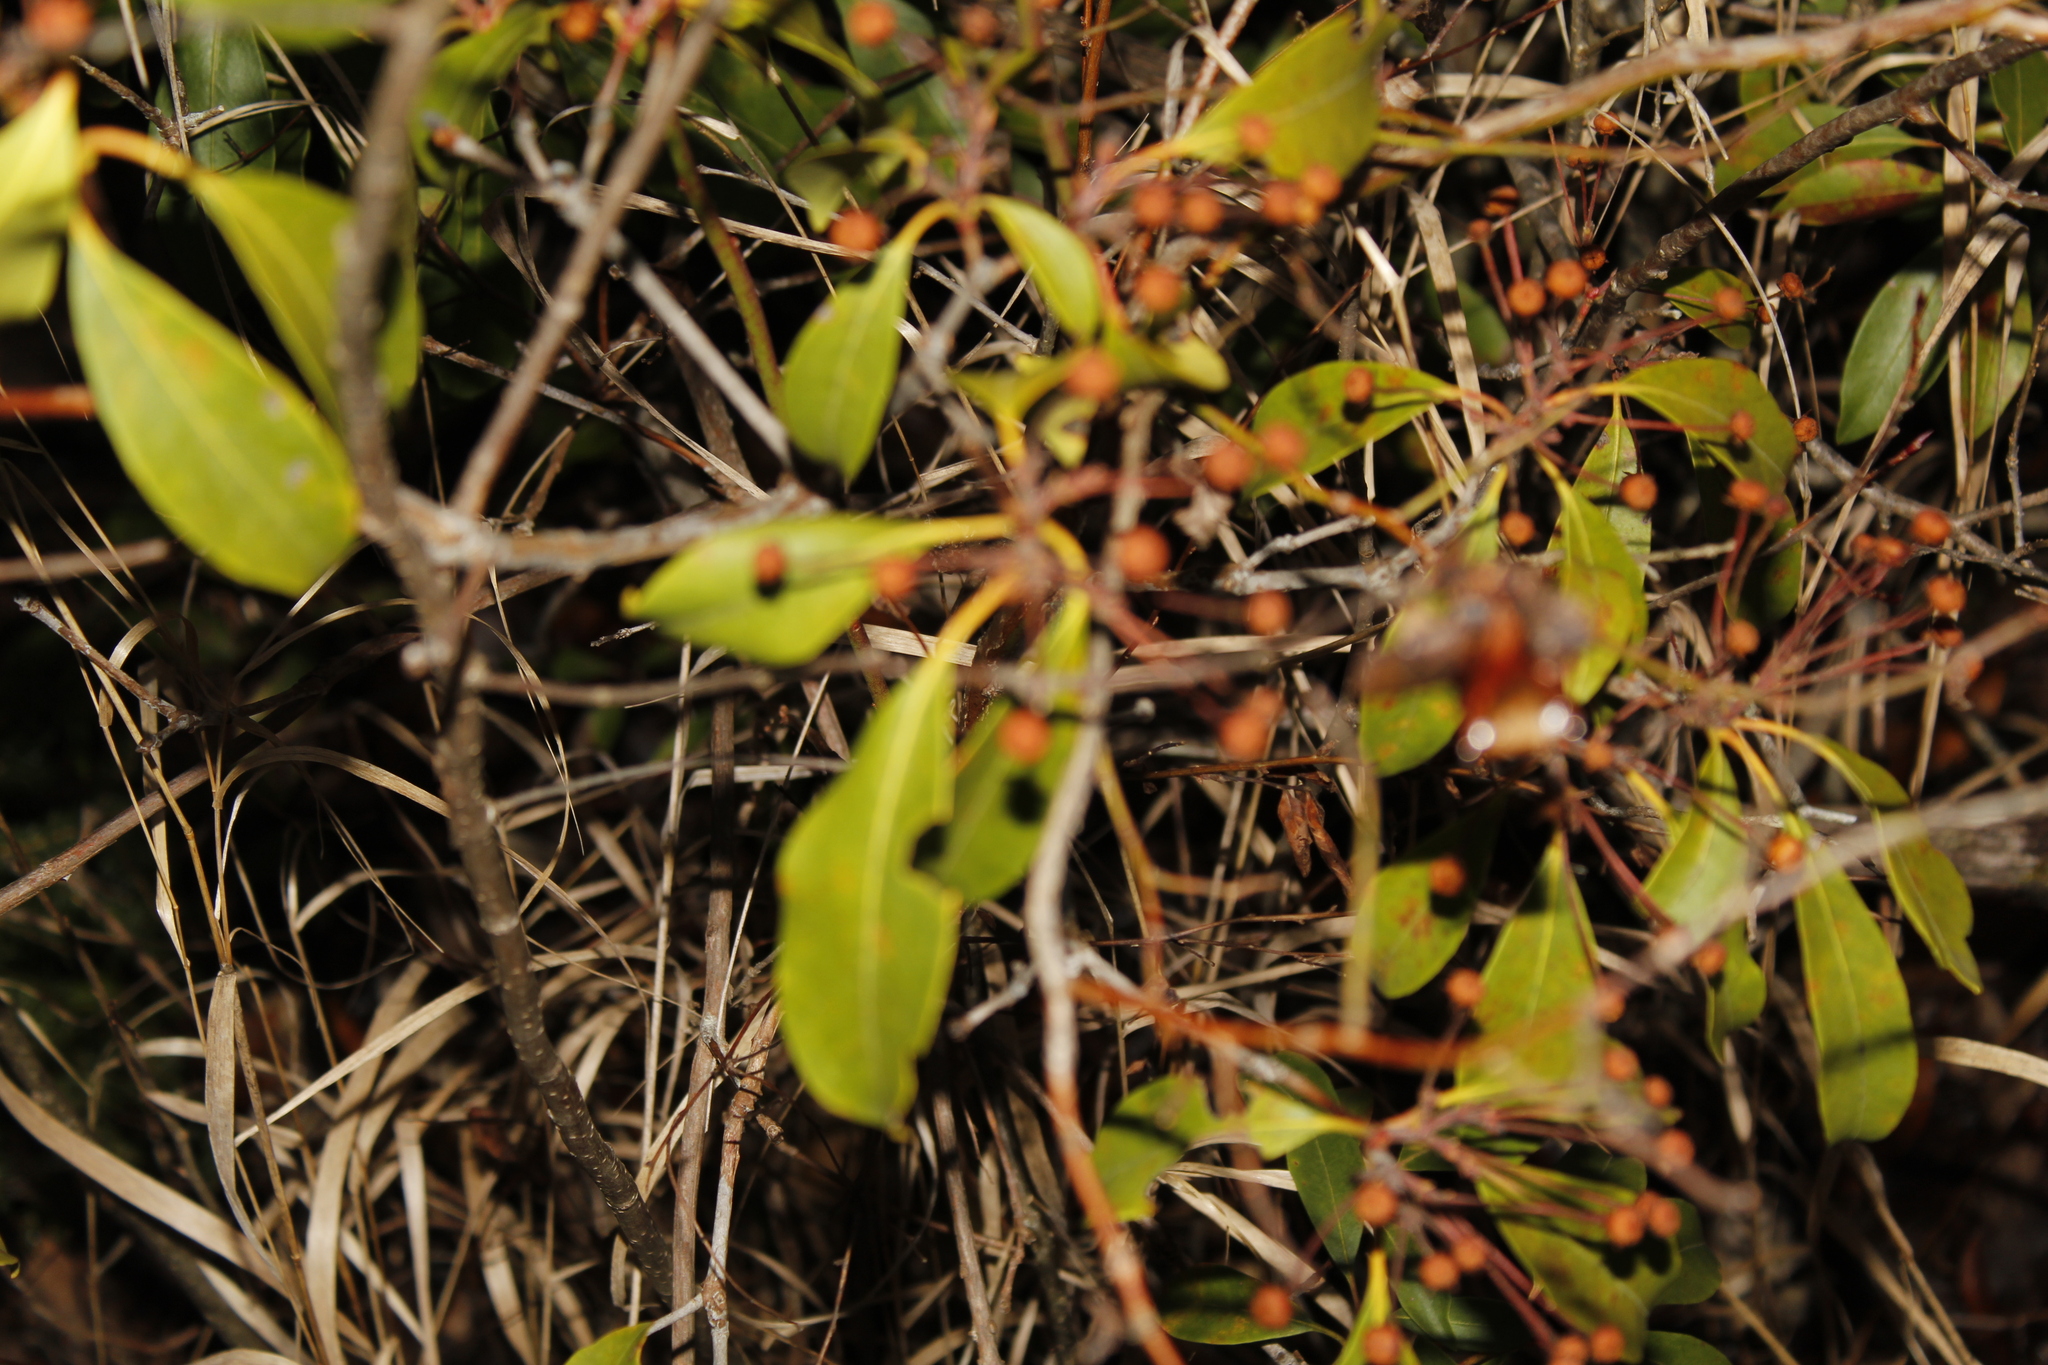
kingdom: Plantae
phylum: Tracheophyta
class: Magnoliopsida
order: Ericales
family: Ericaceae
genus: Kalmia
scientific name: Kalmia latifolia
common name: Mountain-laurel
